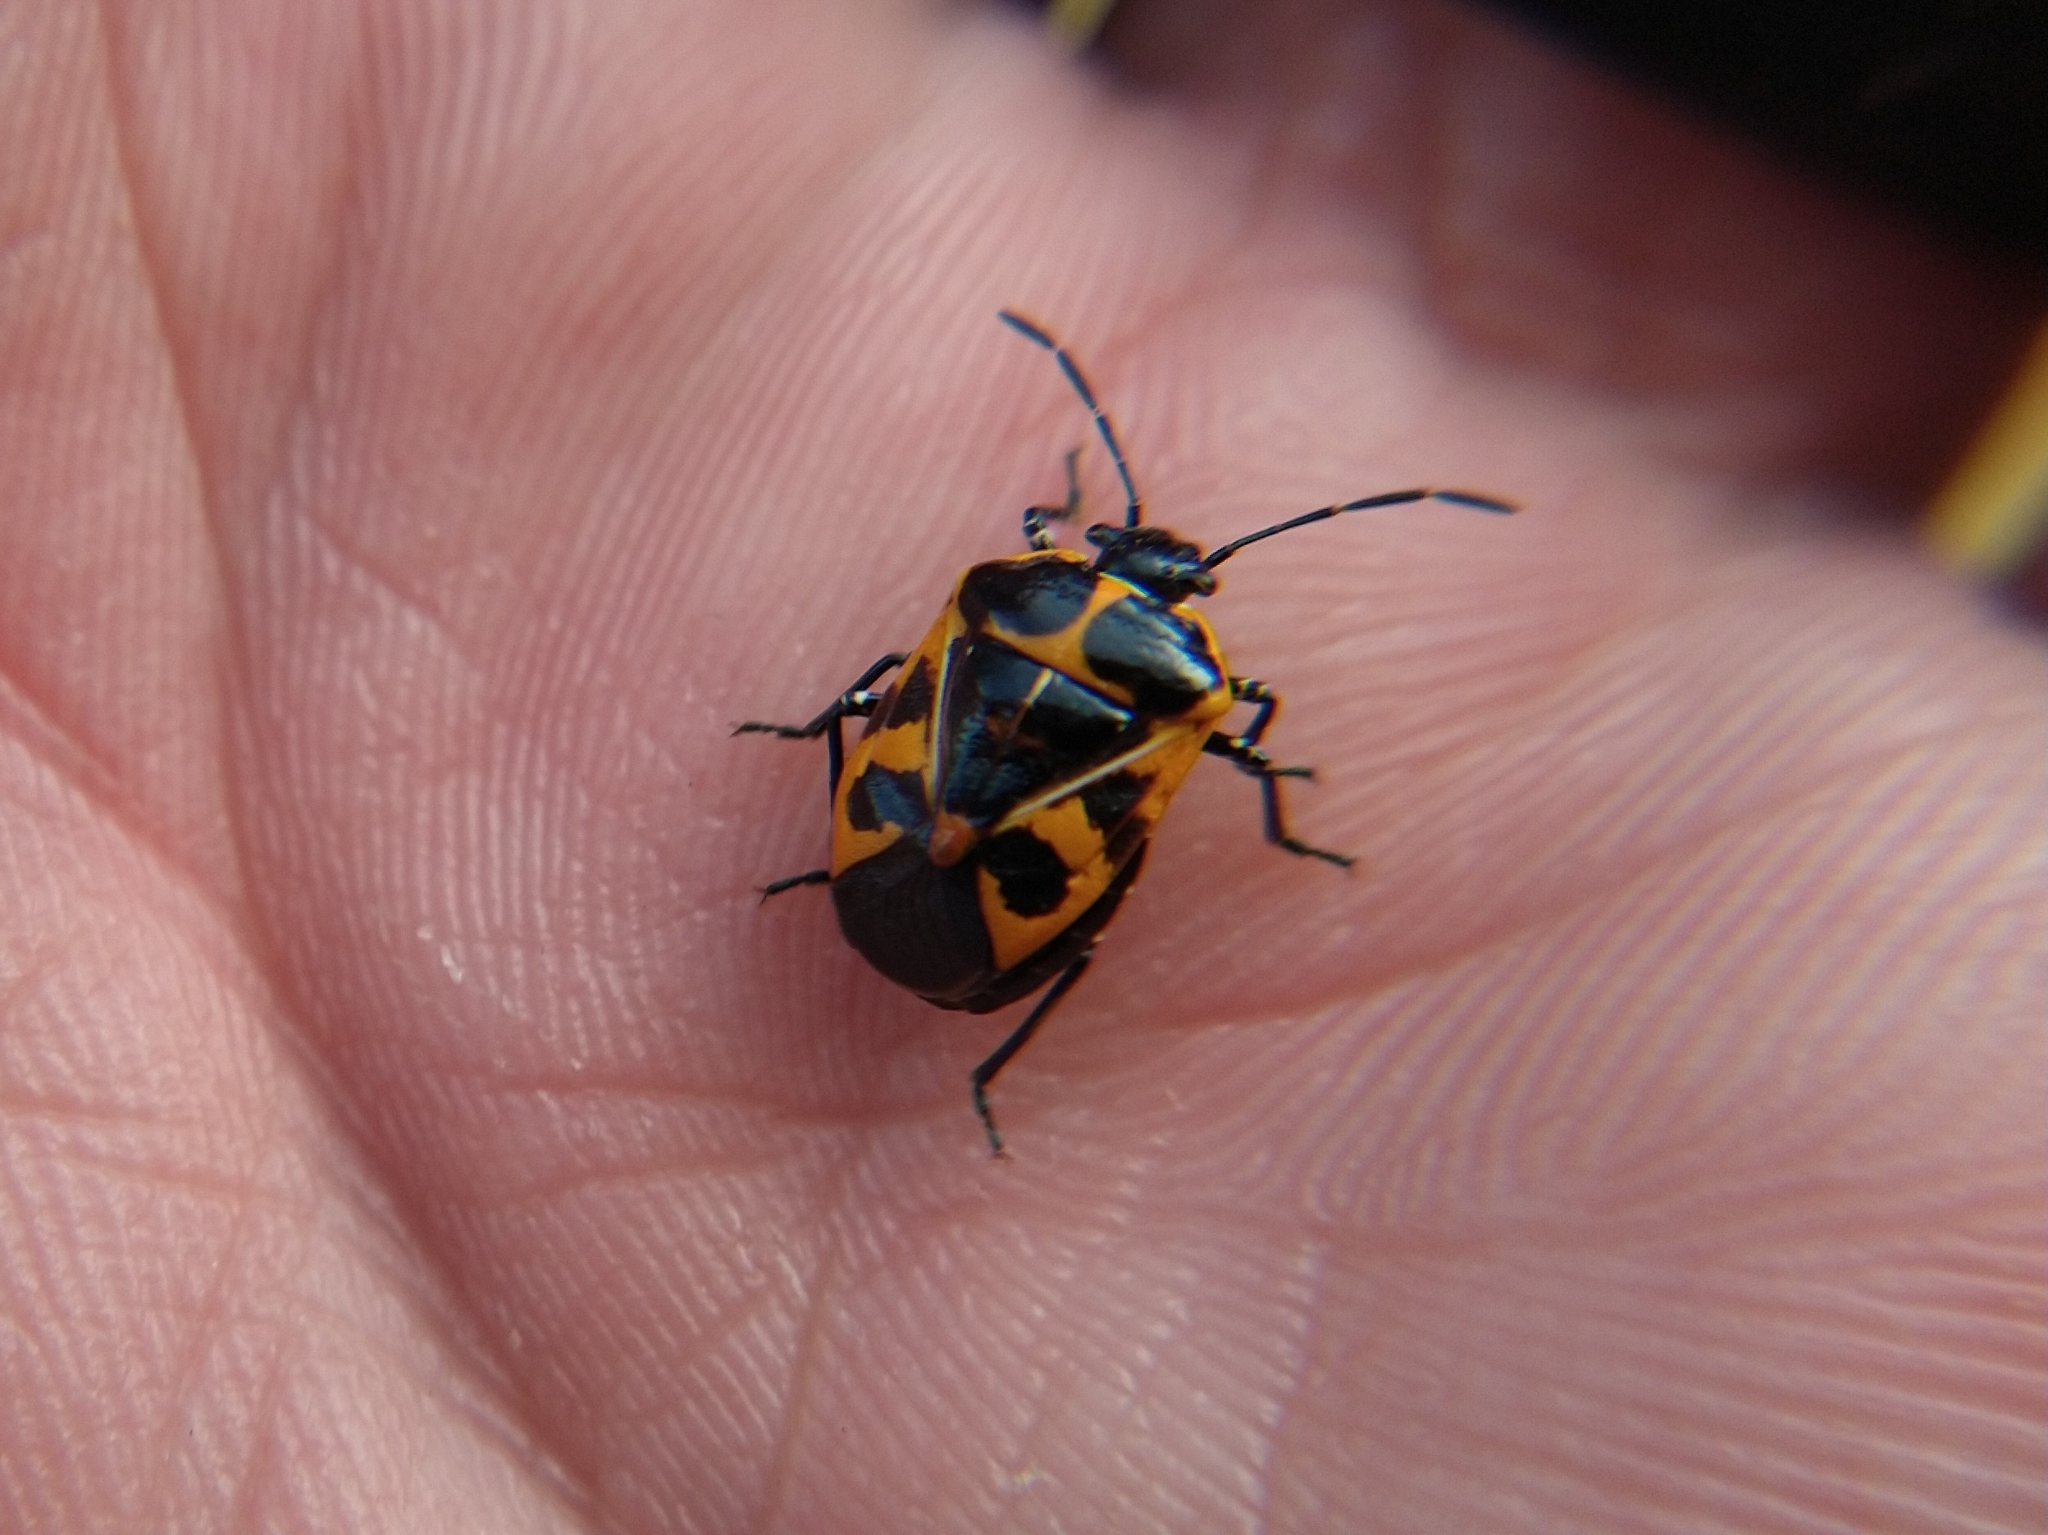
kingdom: Animalia
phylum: Arthropoda
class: Insecta
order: Hemiptera
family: Pentatomidae
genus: Murgantia
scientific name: Murgantia histrionica
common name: Harlequin bug
